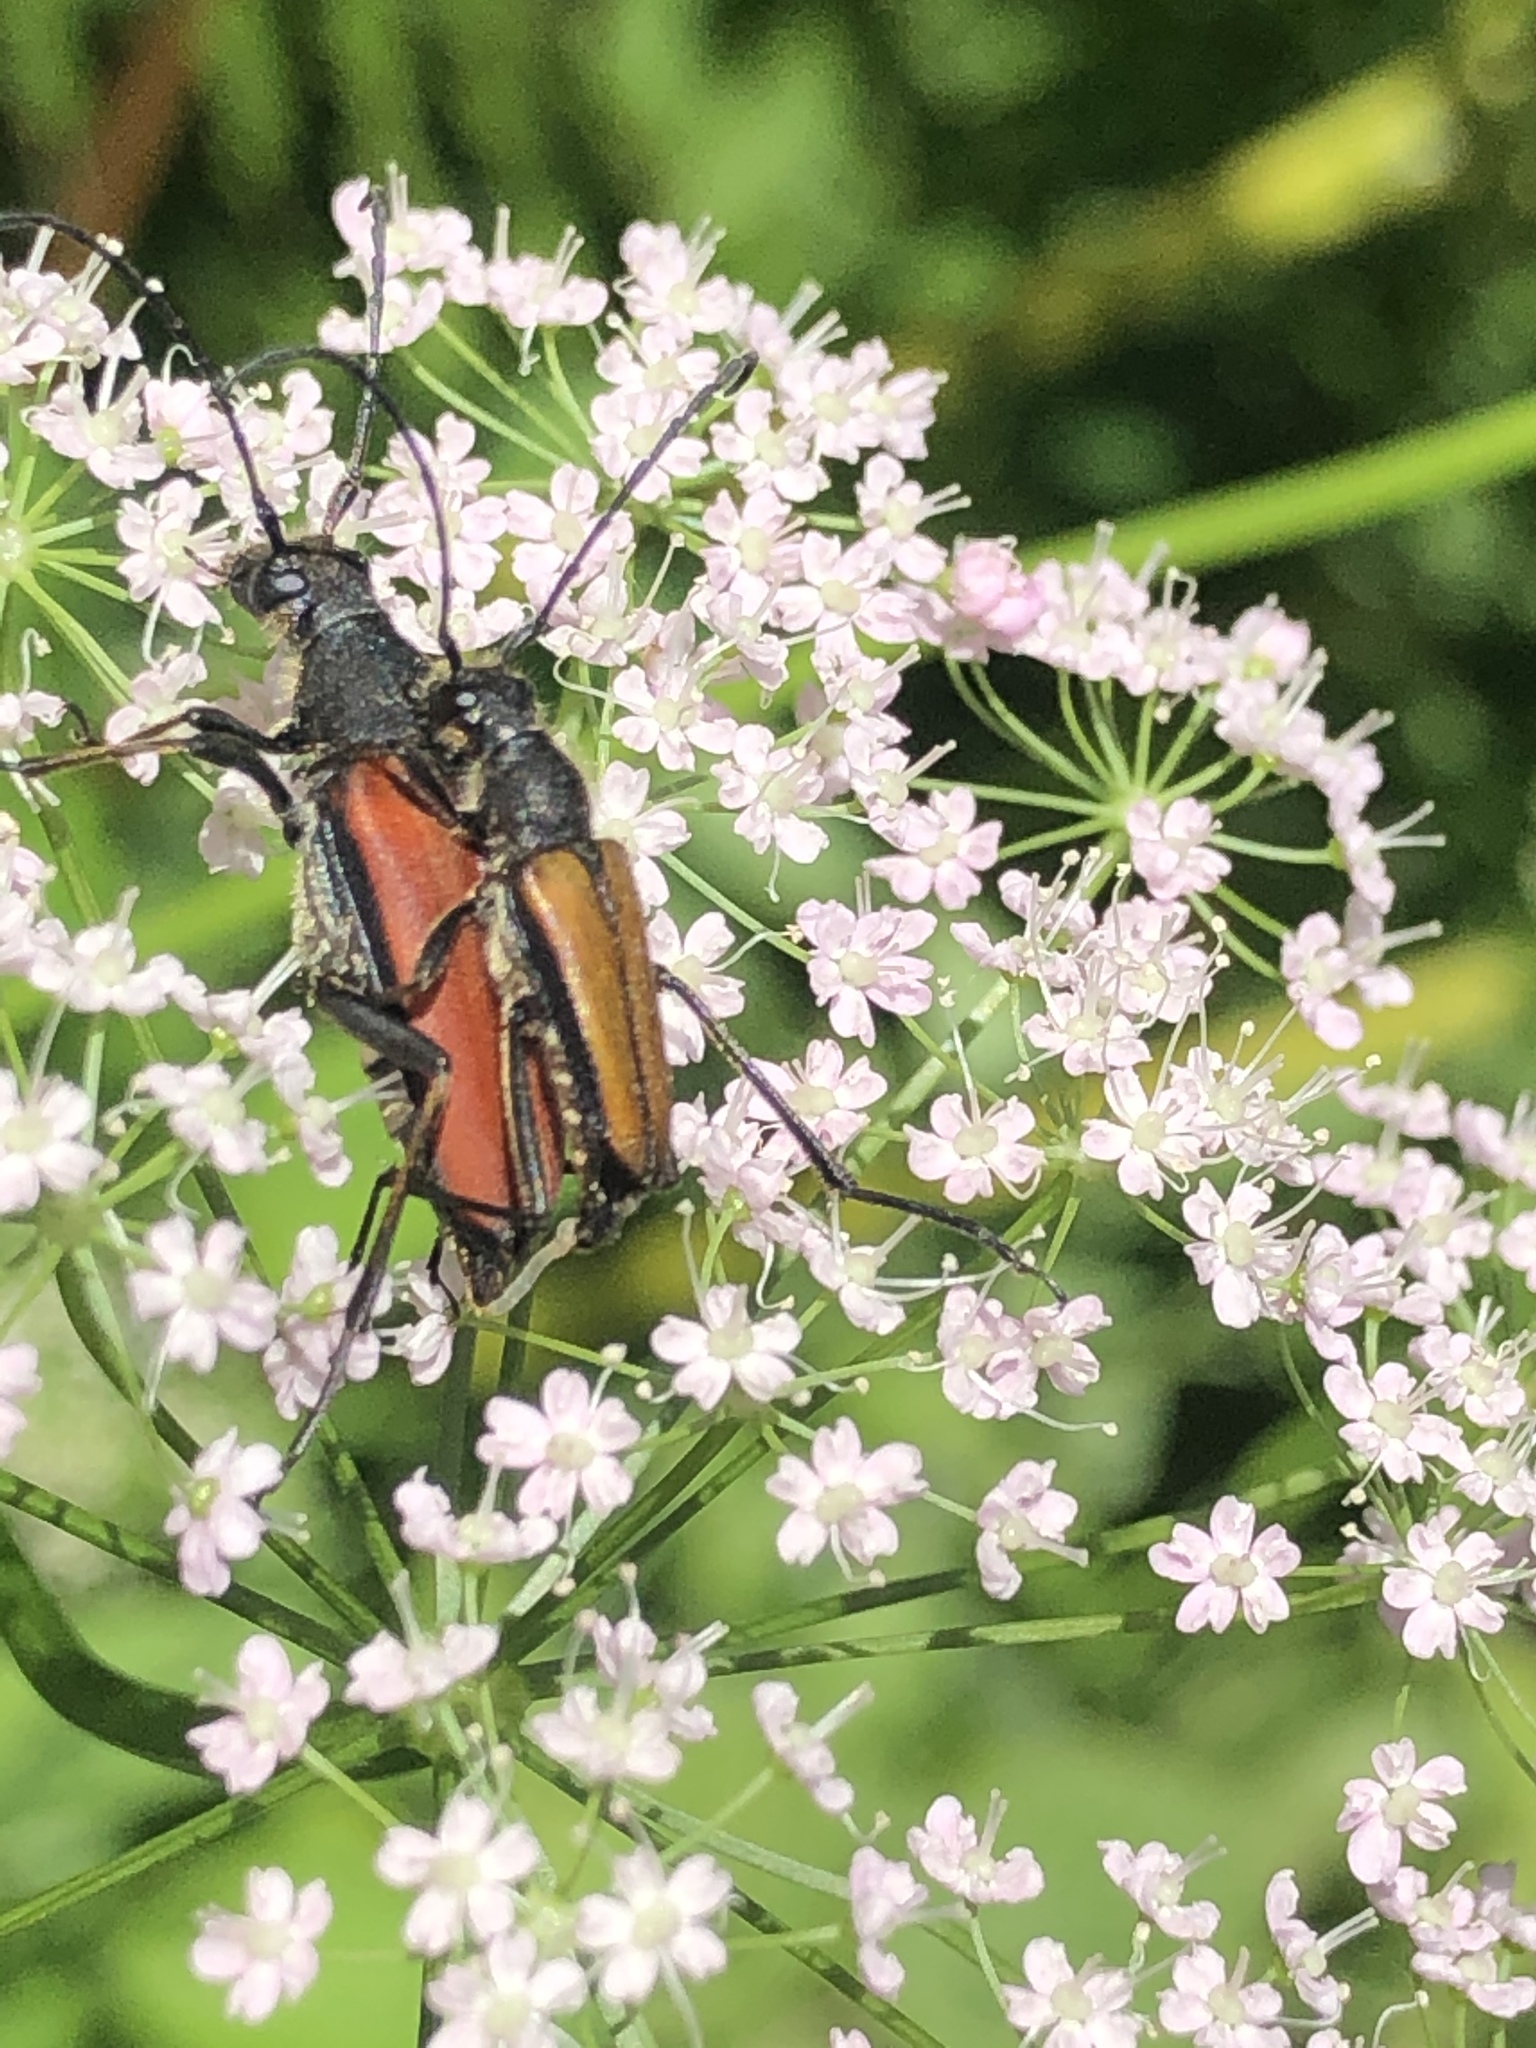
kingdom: Animalia
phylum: Arthropoda
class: Insecta
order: Coleoptera
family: Cerambycidae
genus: Anastrangalia
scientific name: Anastrangalia dubia
